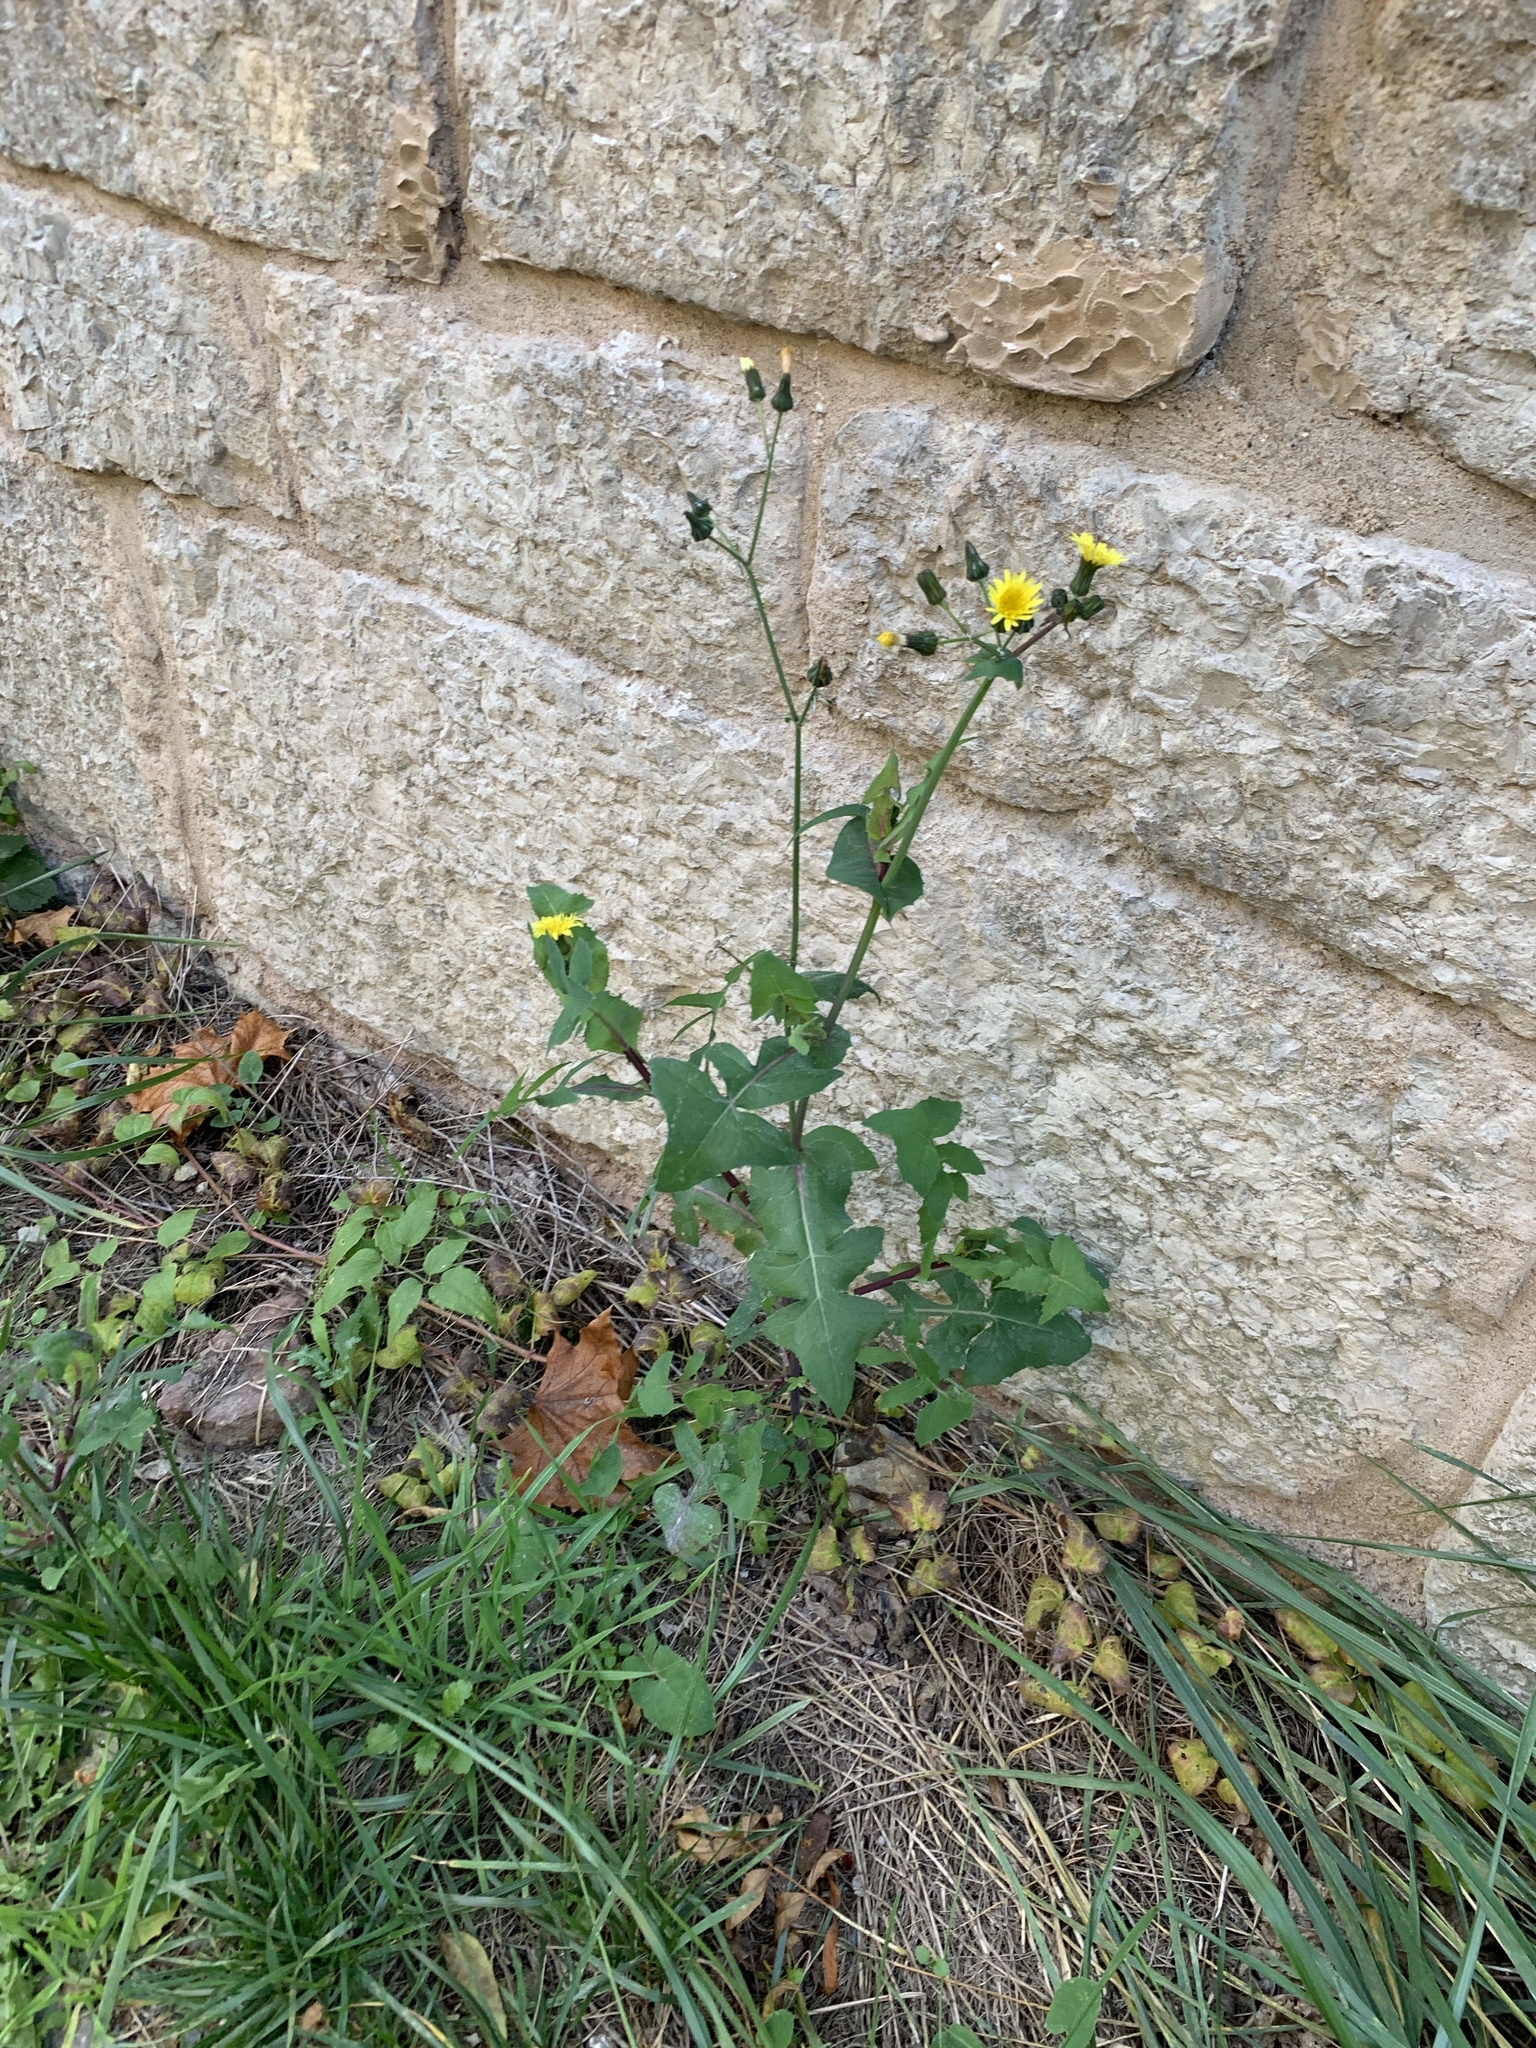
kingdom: Plantae
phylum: Tracheophyta
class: Magnoliopsida
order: Asterales
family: Asteraceae
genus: Sonchus
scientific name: Sonchus oleraceus
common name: Common sowthistle
